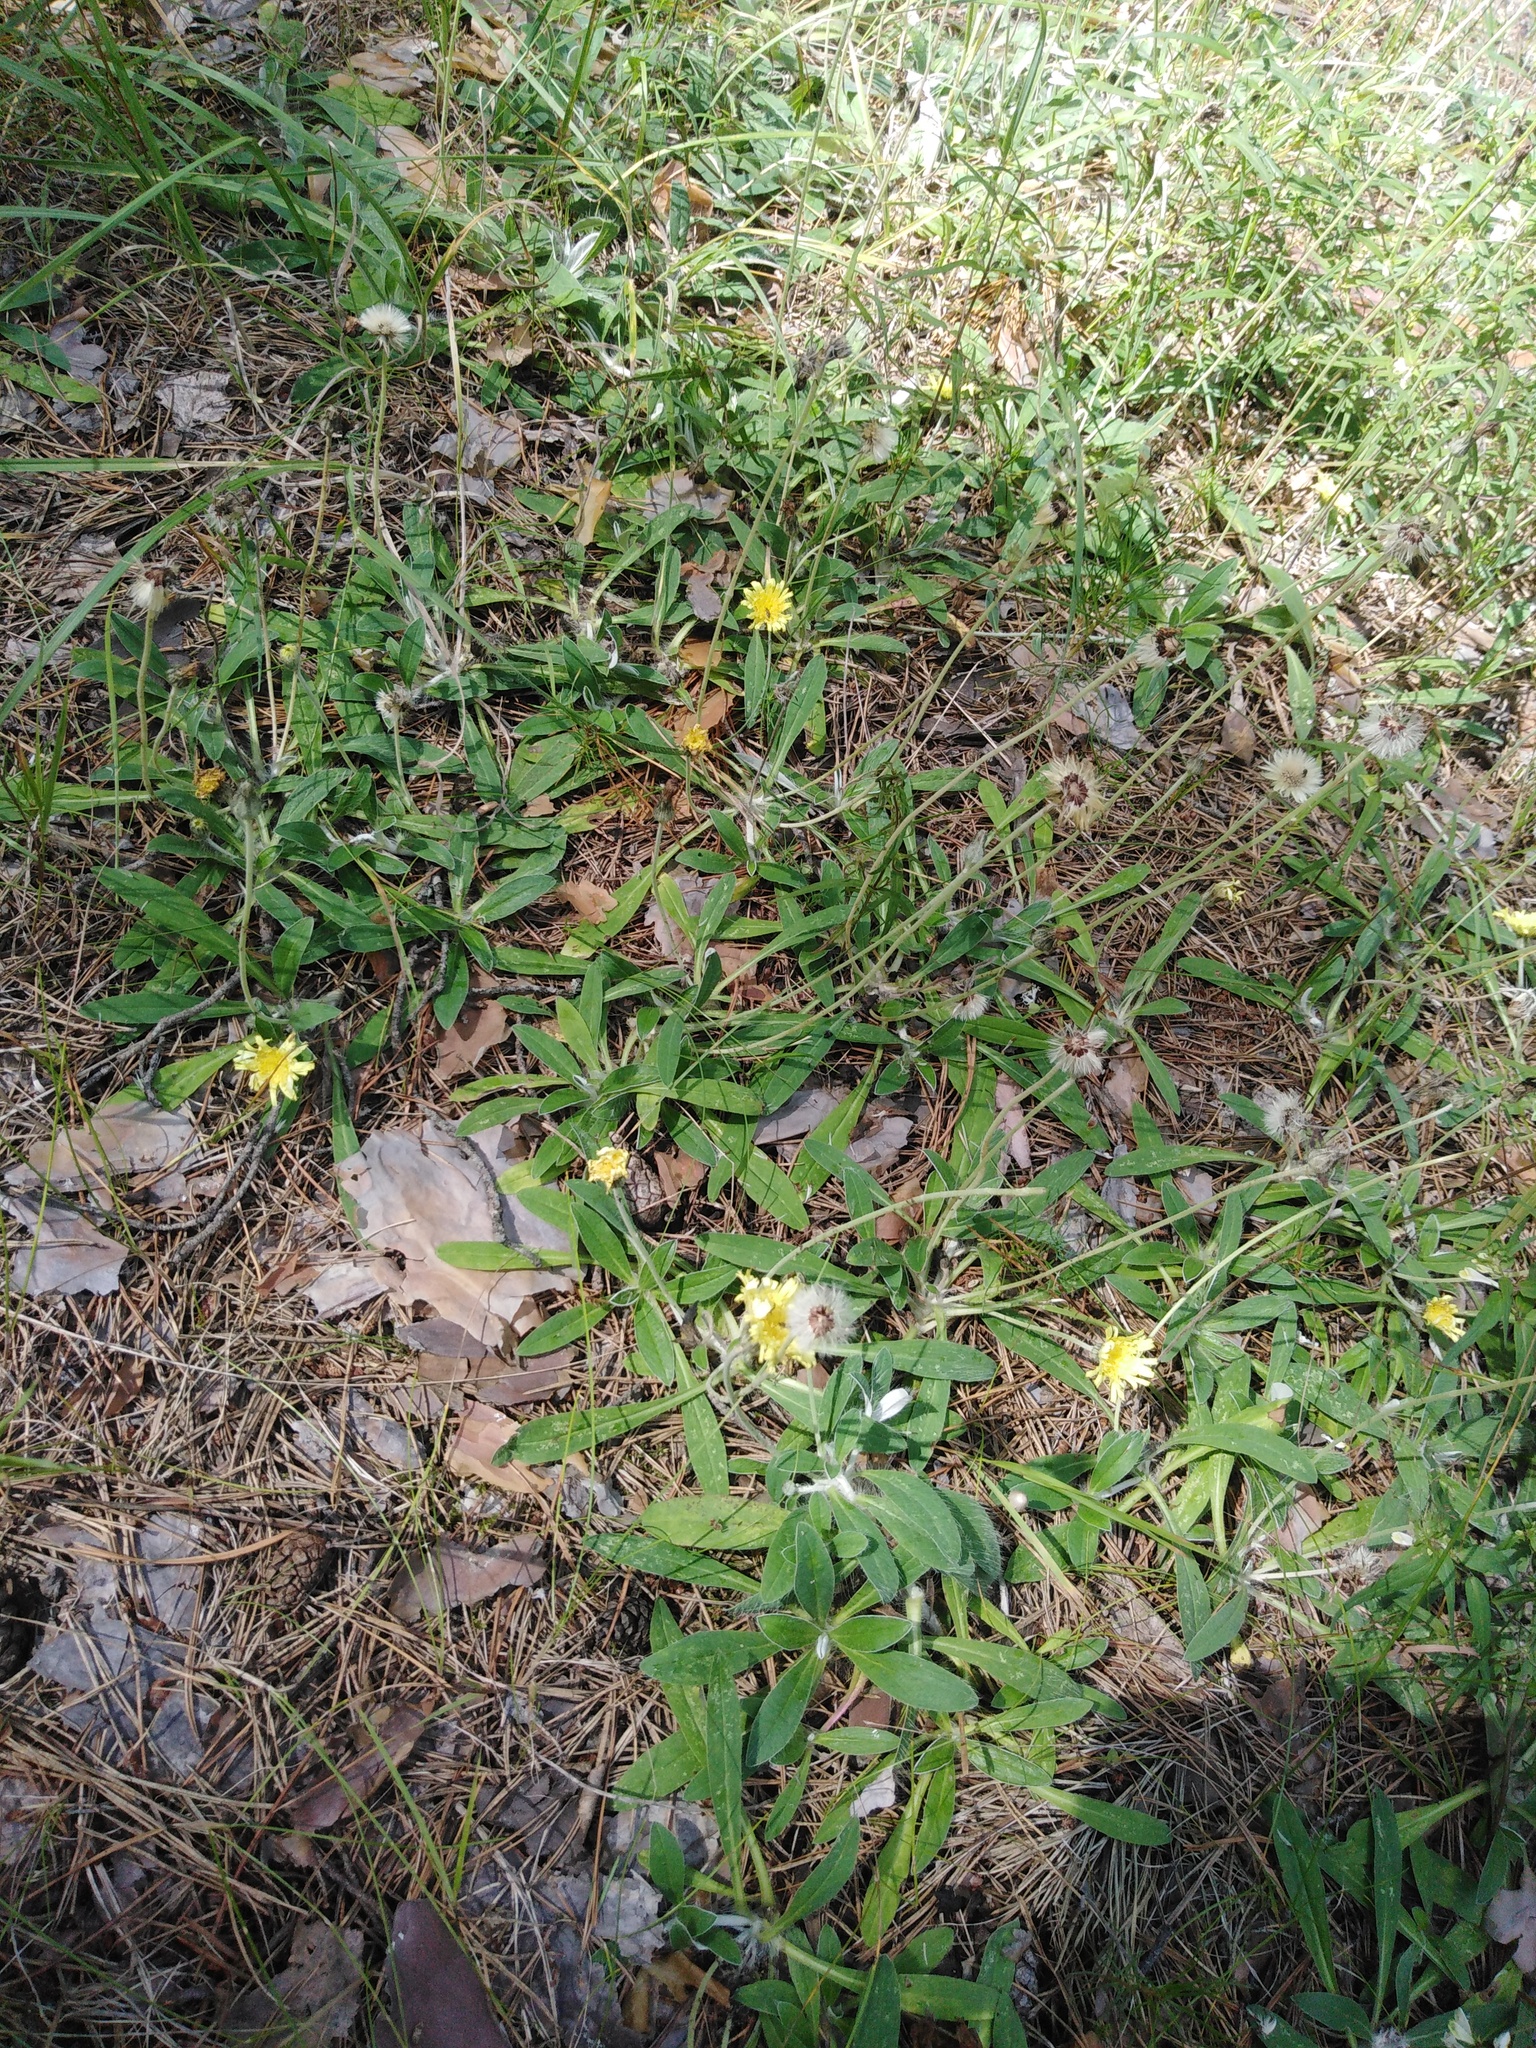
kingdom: Plantae
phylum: Tracheophyta
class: Magnoliopsida
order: Asterales
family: Asteraceae
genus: Pilosella
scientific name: Pilosella officinarum
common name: Mouse-ear hawkweed
